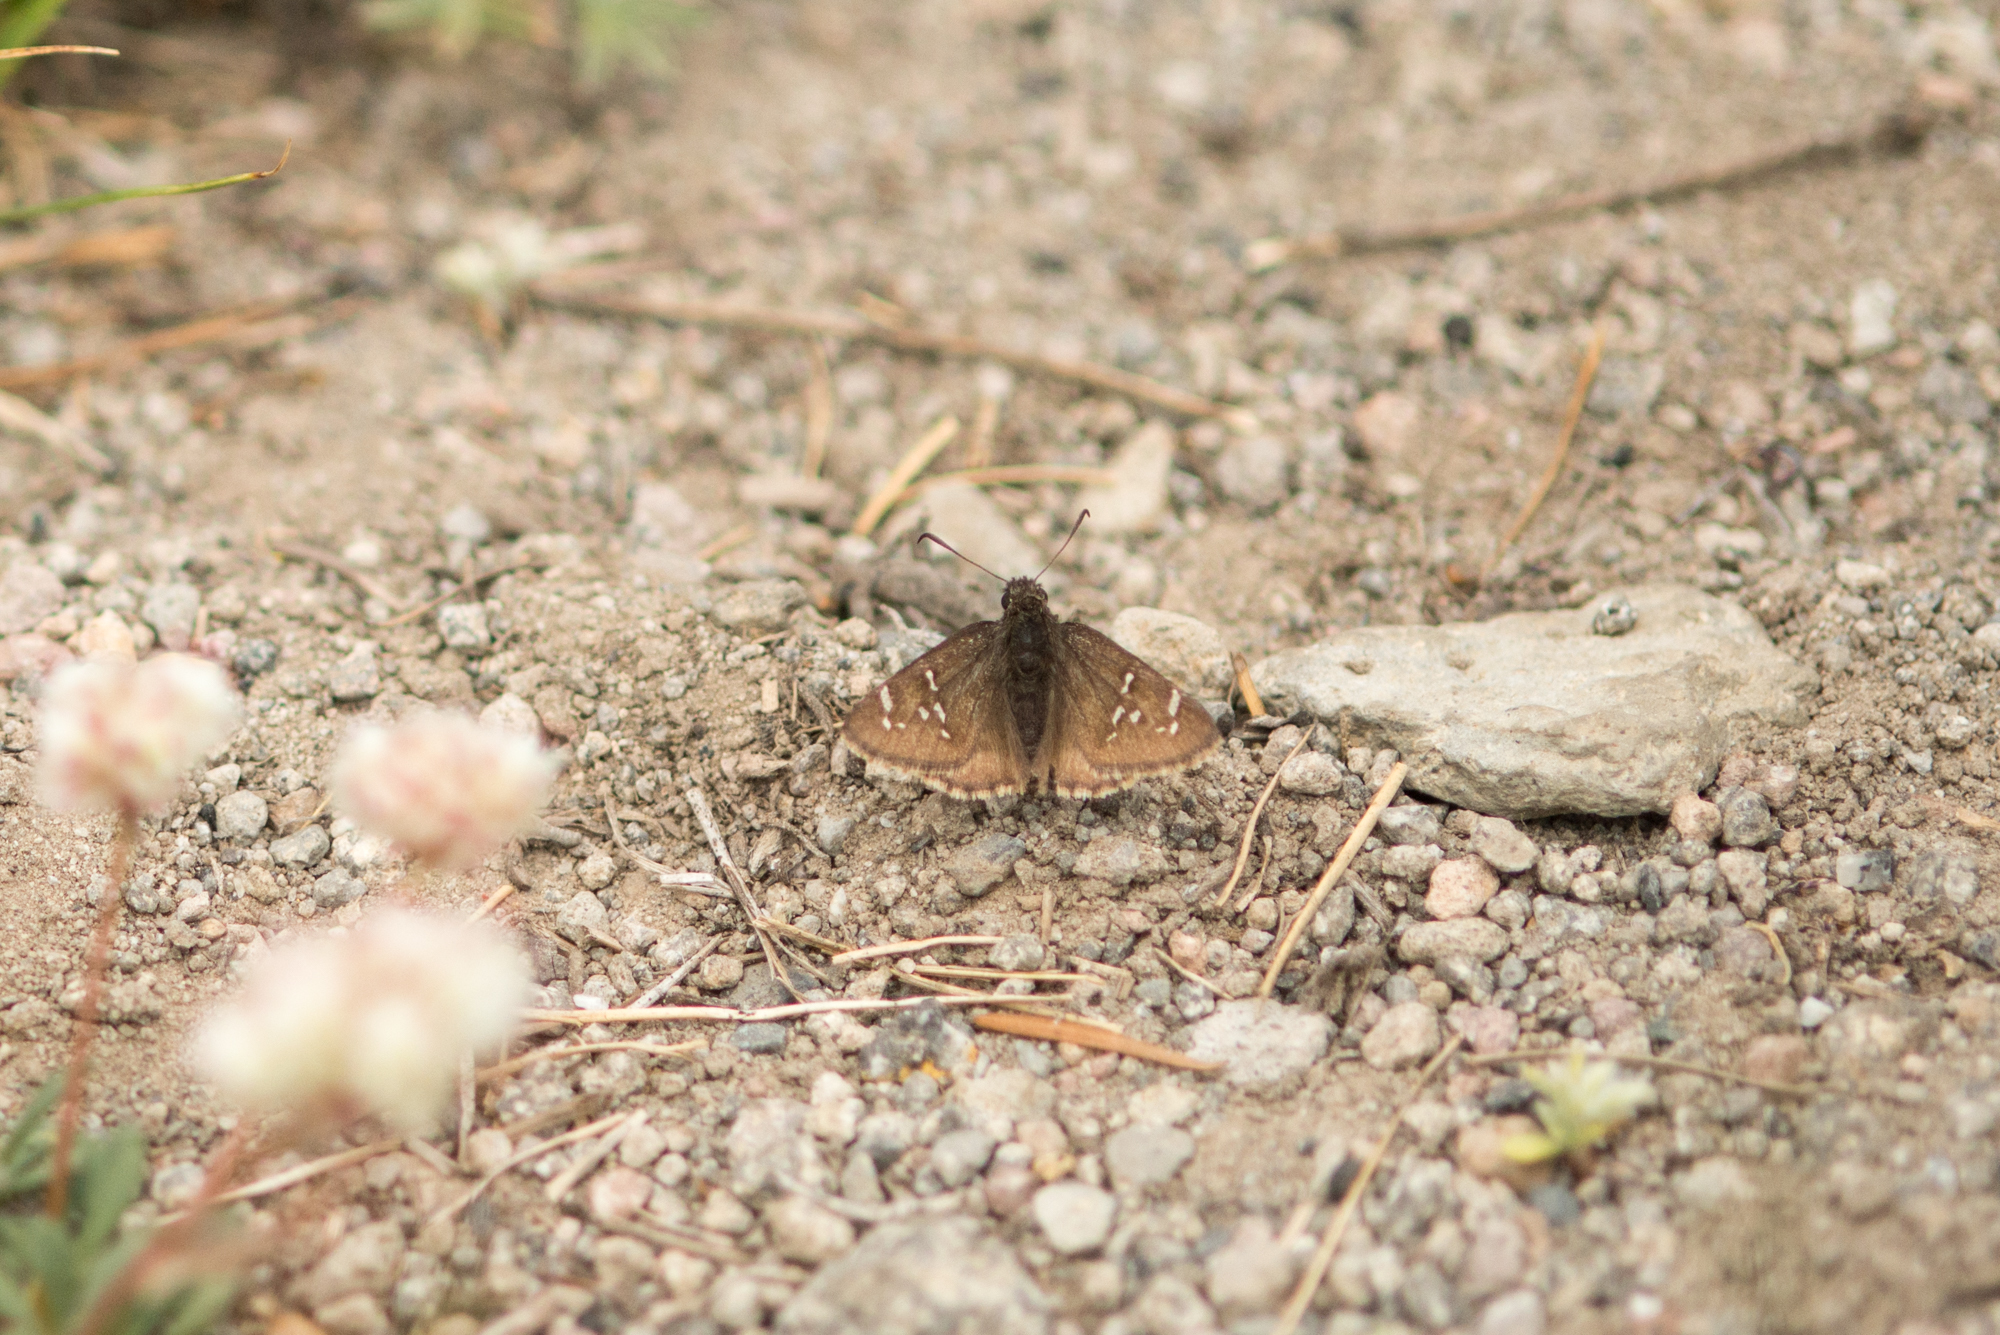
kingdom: Animalia
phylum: Arthropoda
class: Insecta
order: Lepidoptera
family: Hesperiidae
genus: Thorybes
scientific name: Thorybes mexicana
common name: Mexican cloudywing
